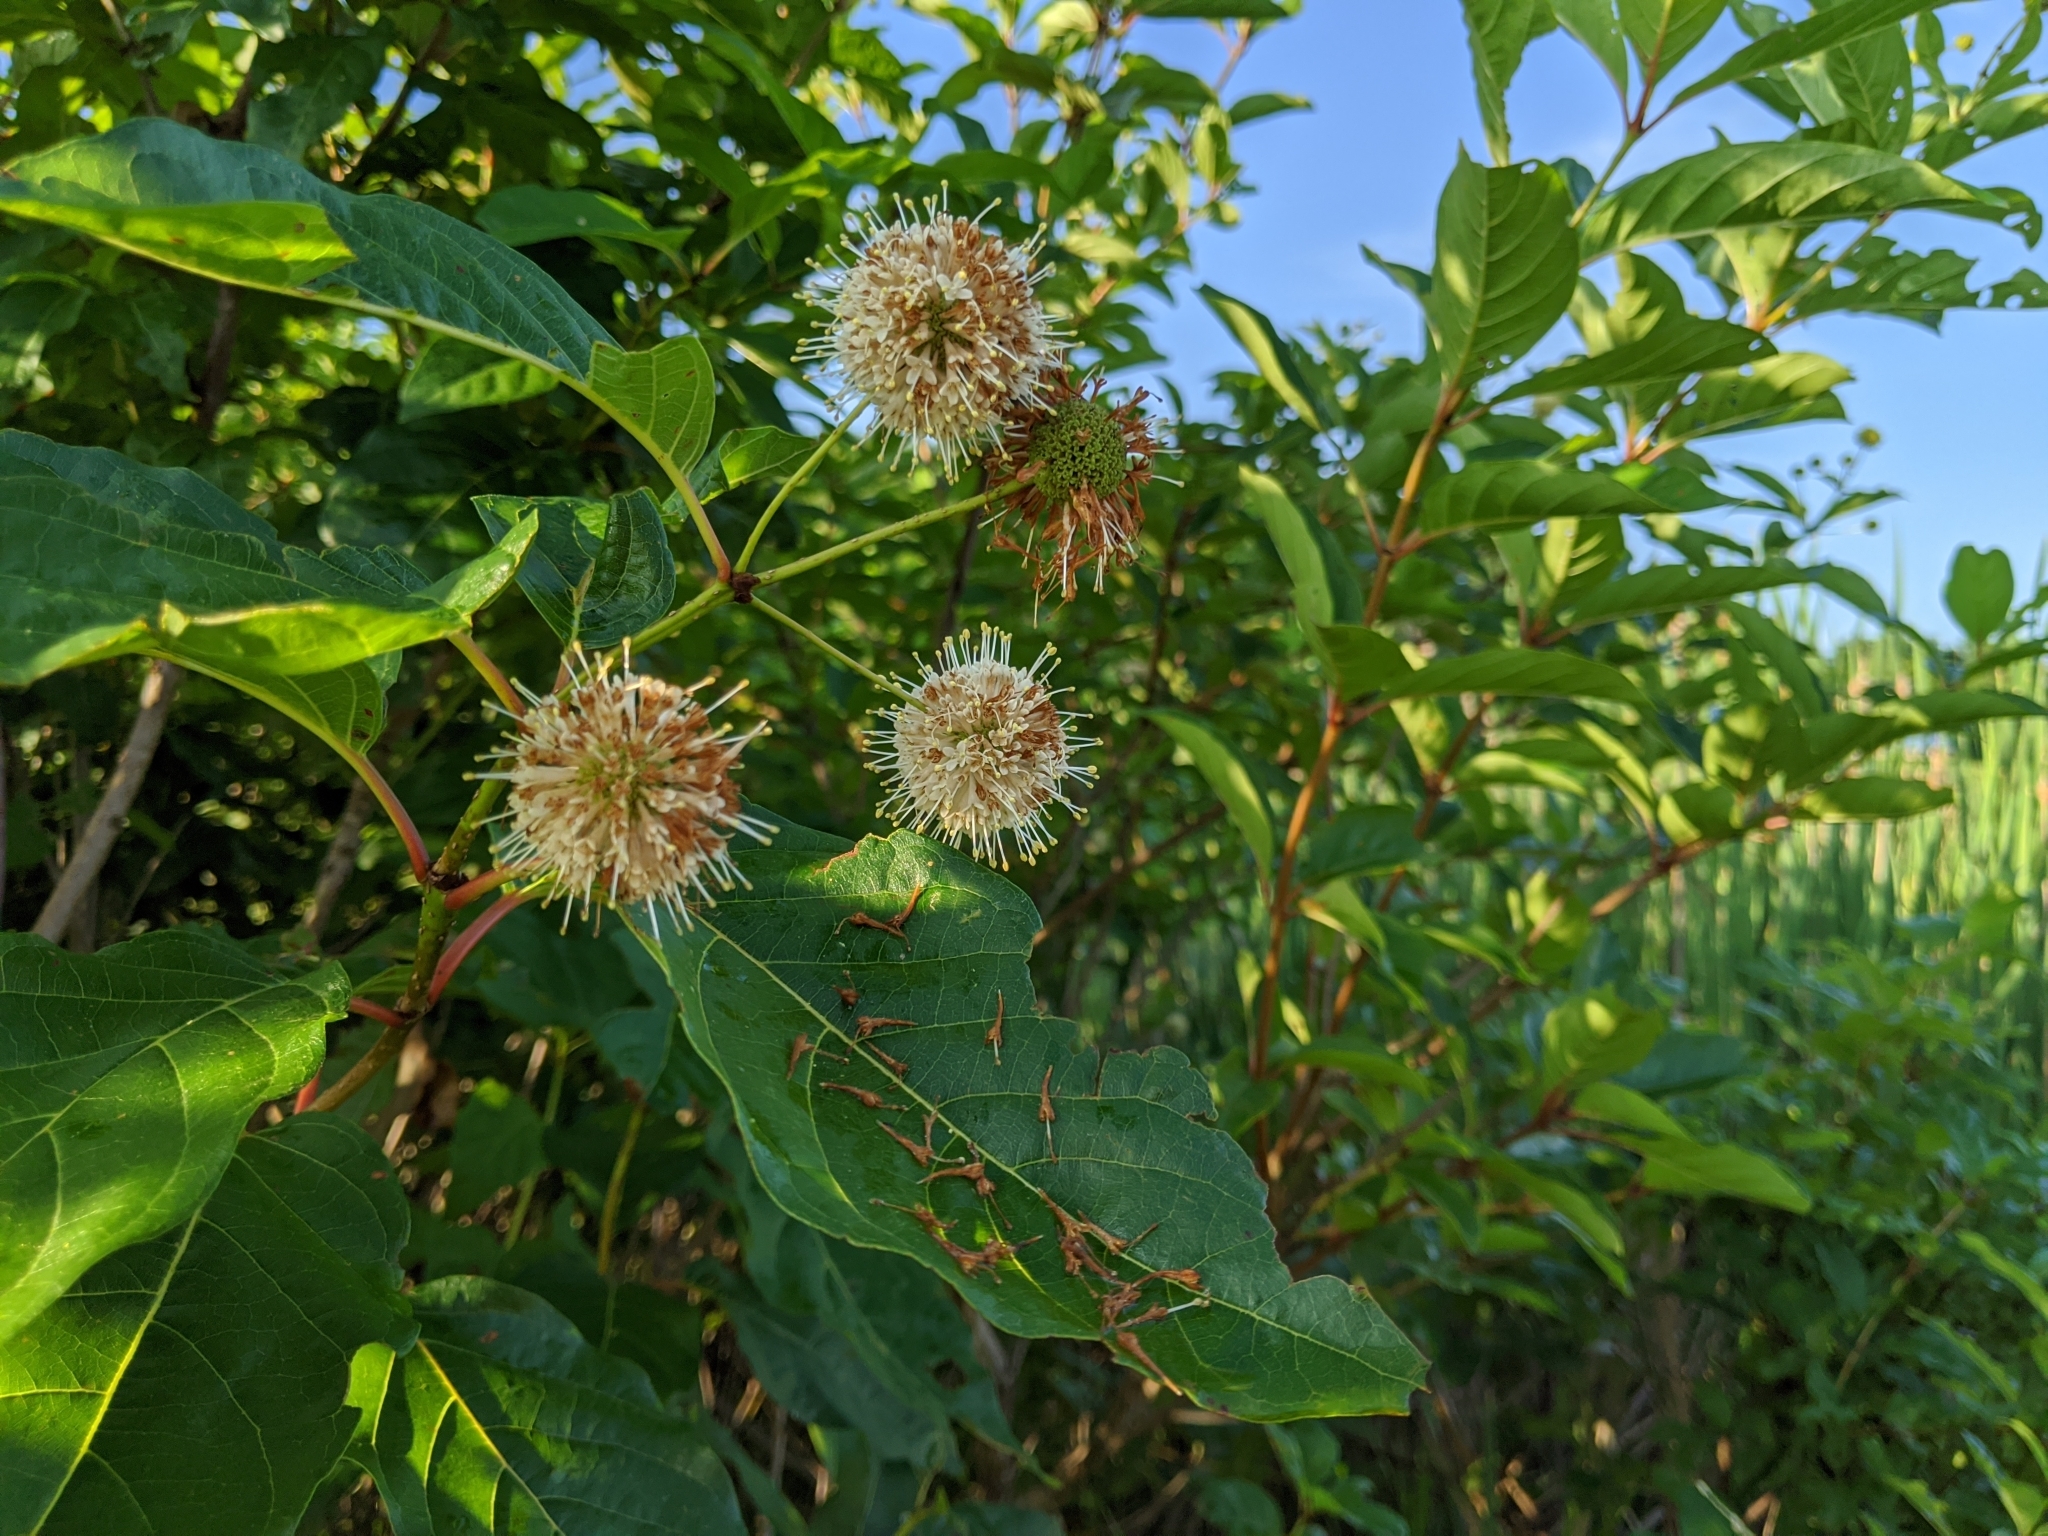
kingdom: Plantae
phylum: Tracheophyta
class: Magnoliopsida
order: Gentianales
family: Rubiaceae
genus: Cephalanthus
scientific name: Cephalanthus occidentalis
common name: Button-willow
